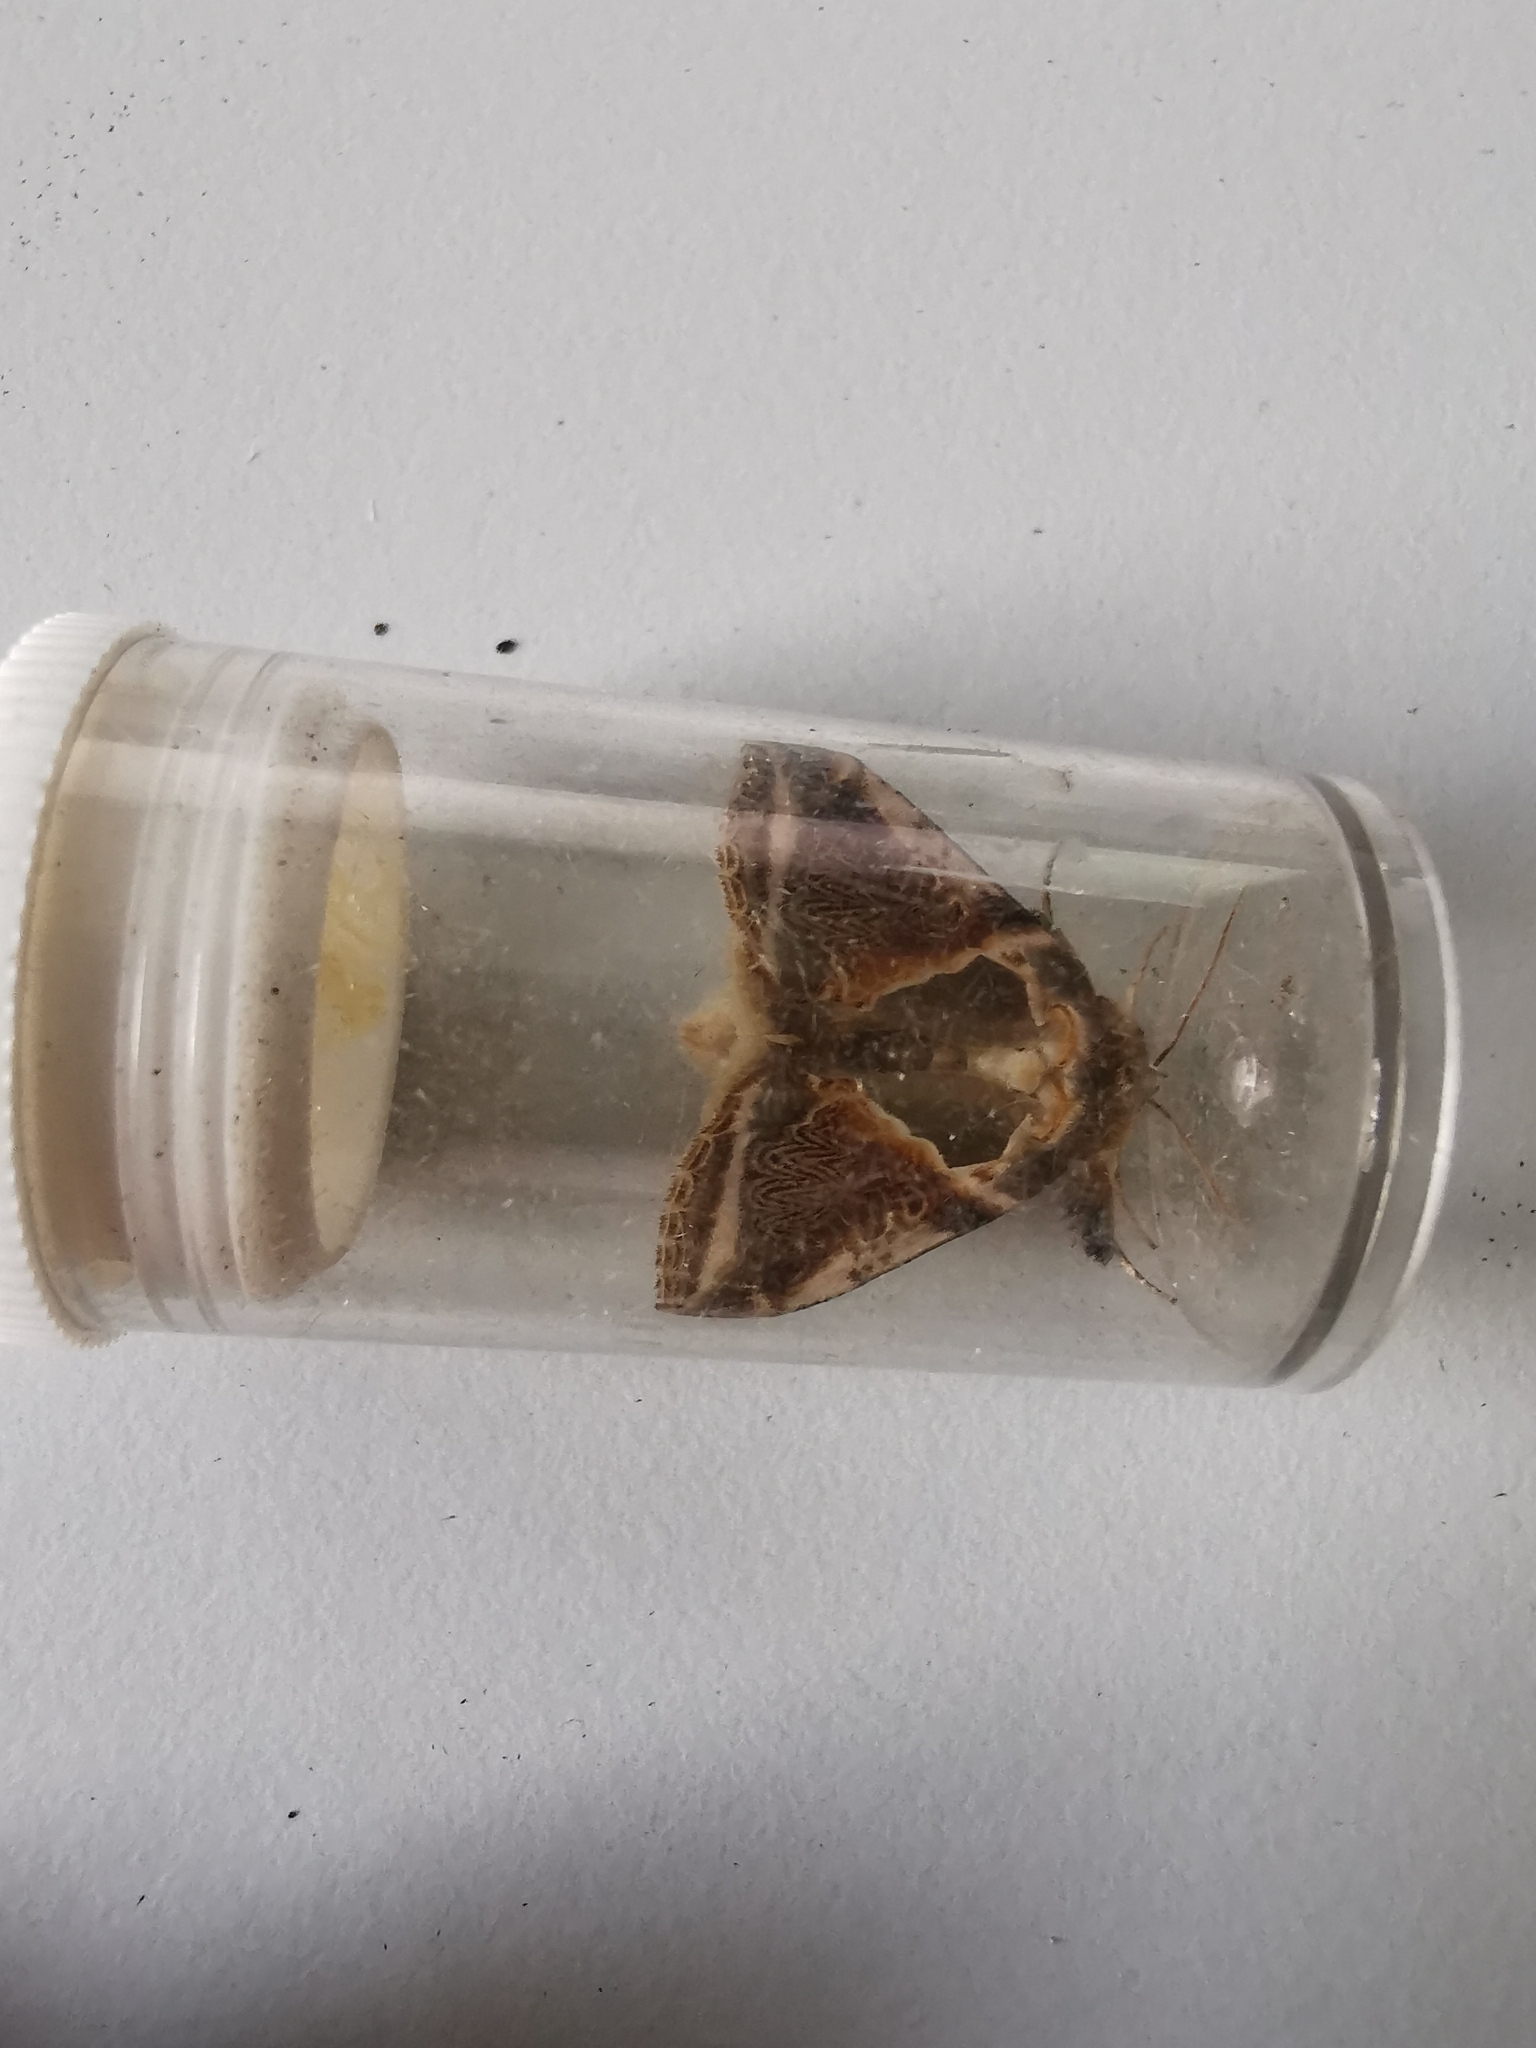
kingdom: Animalia
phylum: Arthropoda
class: Insecta
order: Lepidoptera
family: Drepanidae
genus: Habrosyne
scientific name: Habrosyne pyritoides
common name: Buff arches
